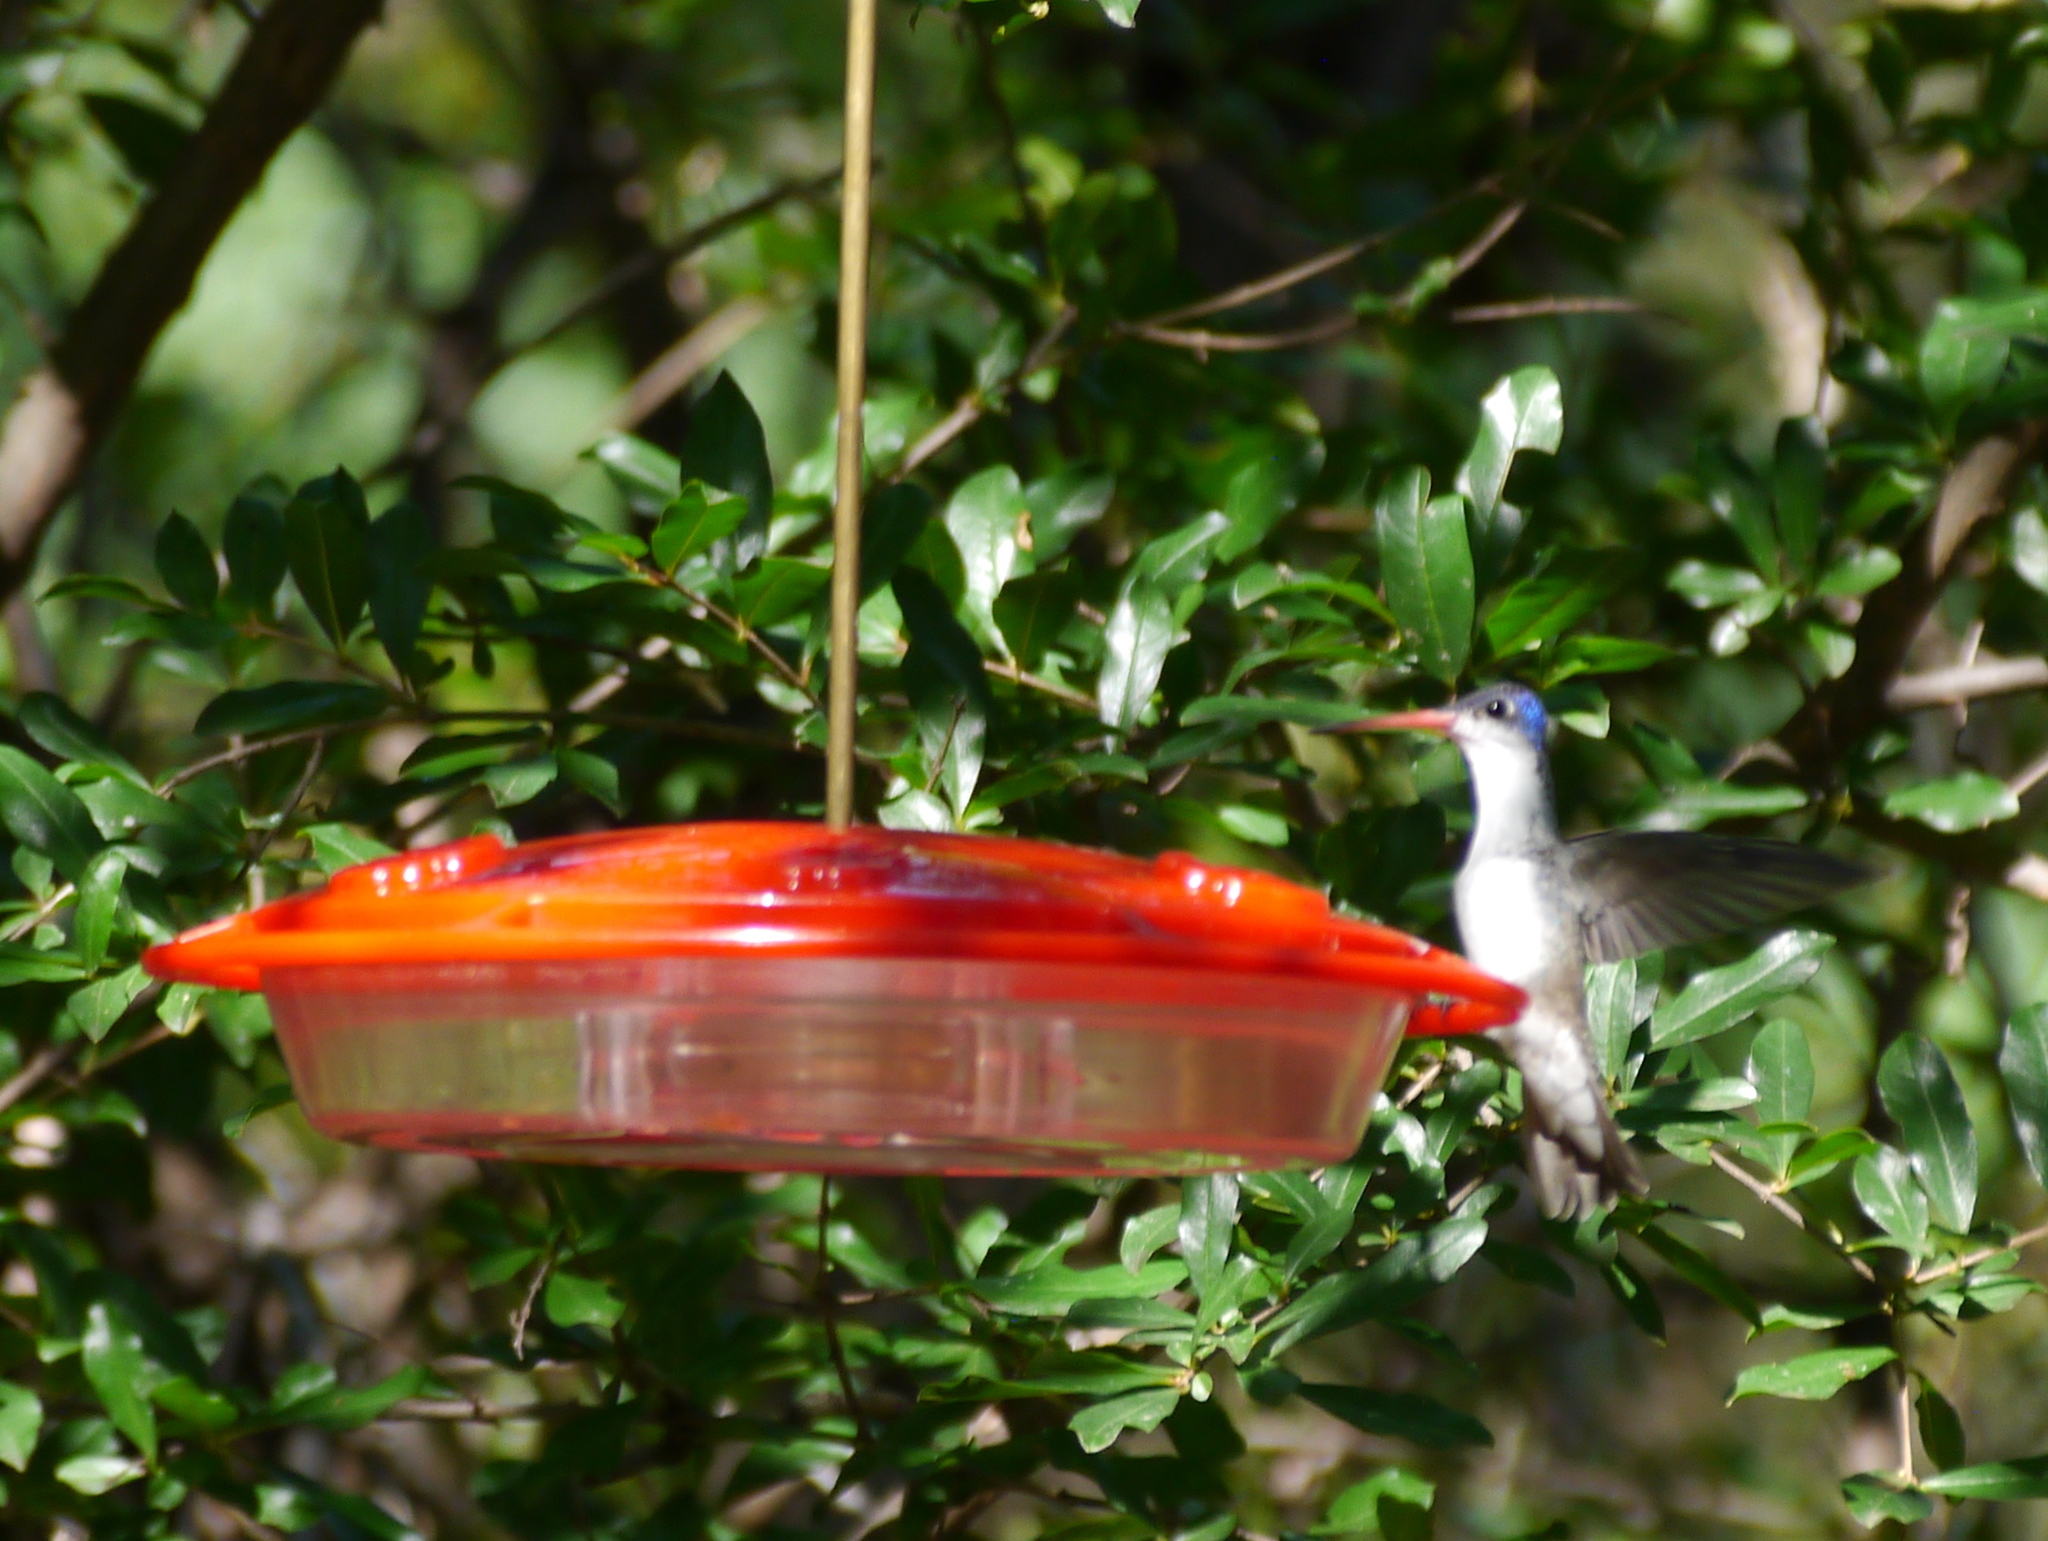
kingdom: Animalia
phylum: Chordata
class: Aves
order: Apodiformes
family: Trochilidae
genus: Leucolia
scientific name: Leucolia violiceps
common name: Violet-crowned hummingbird
